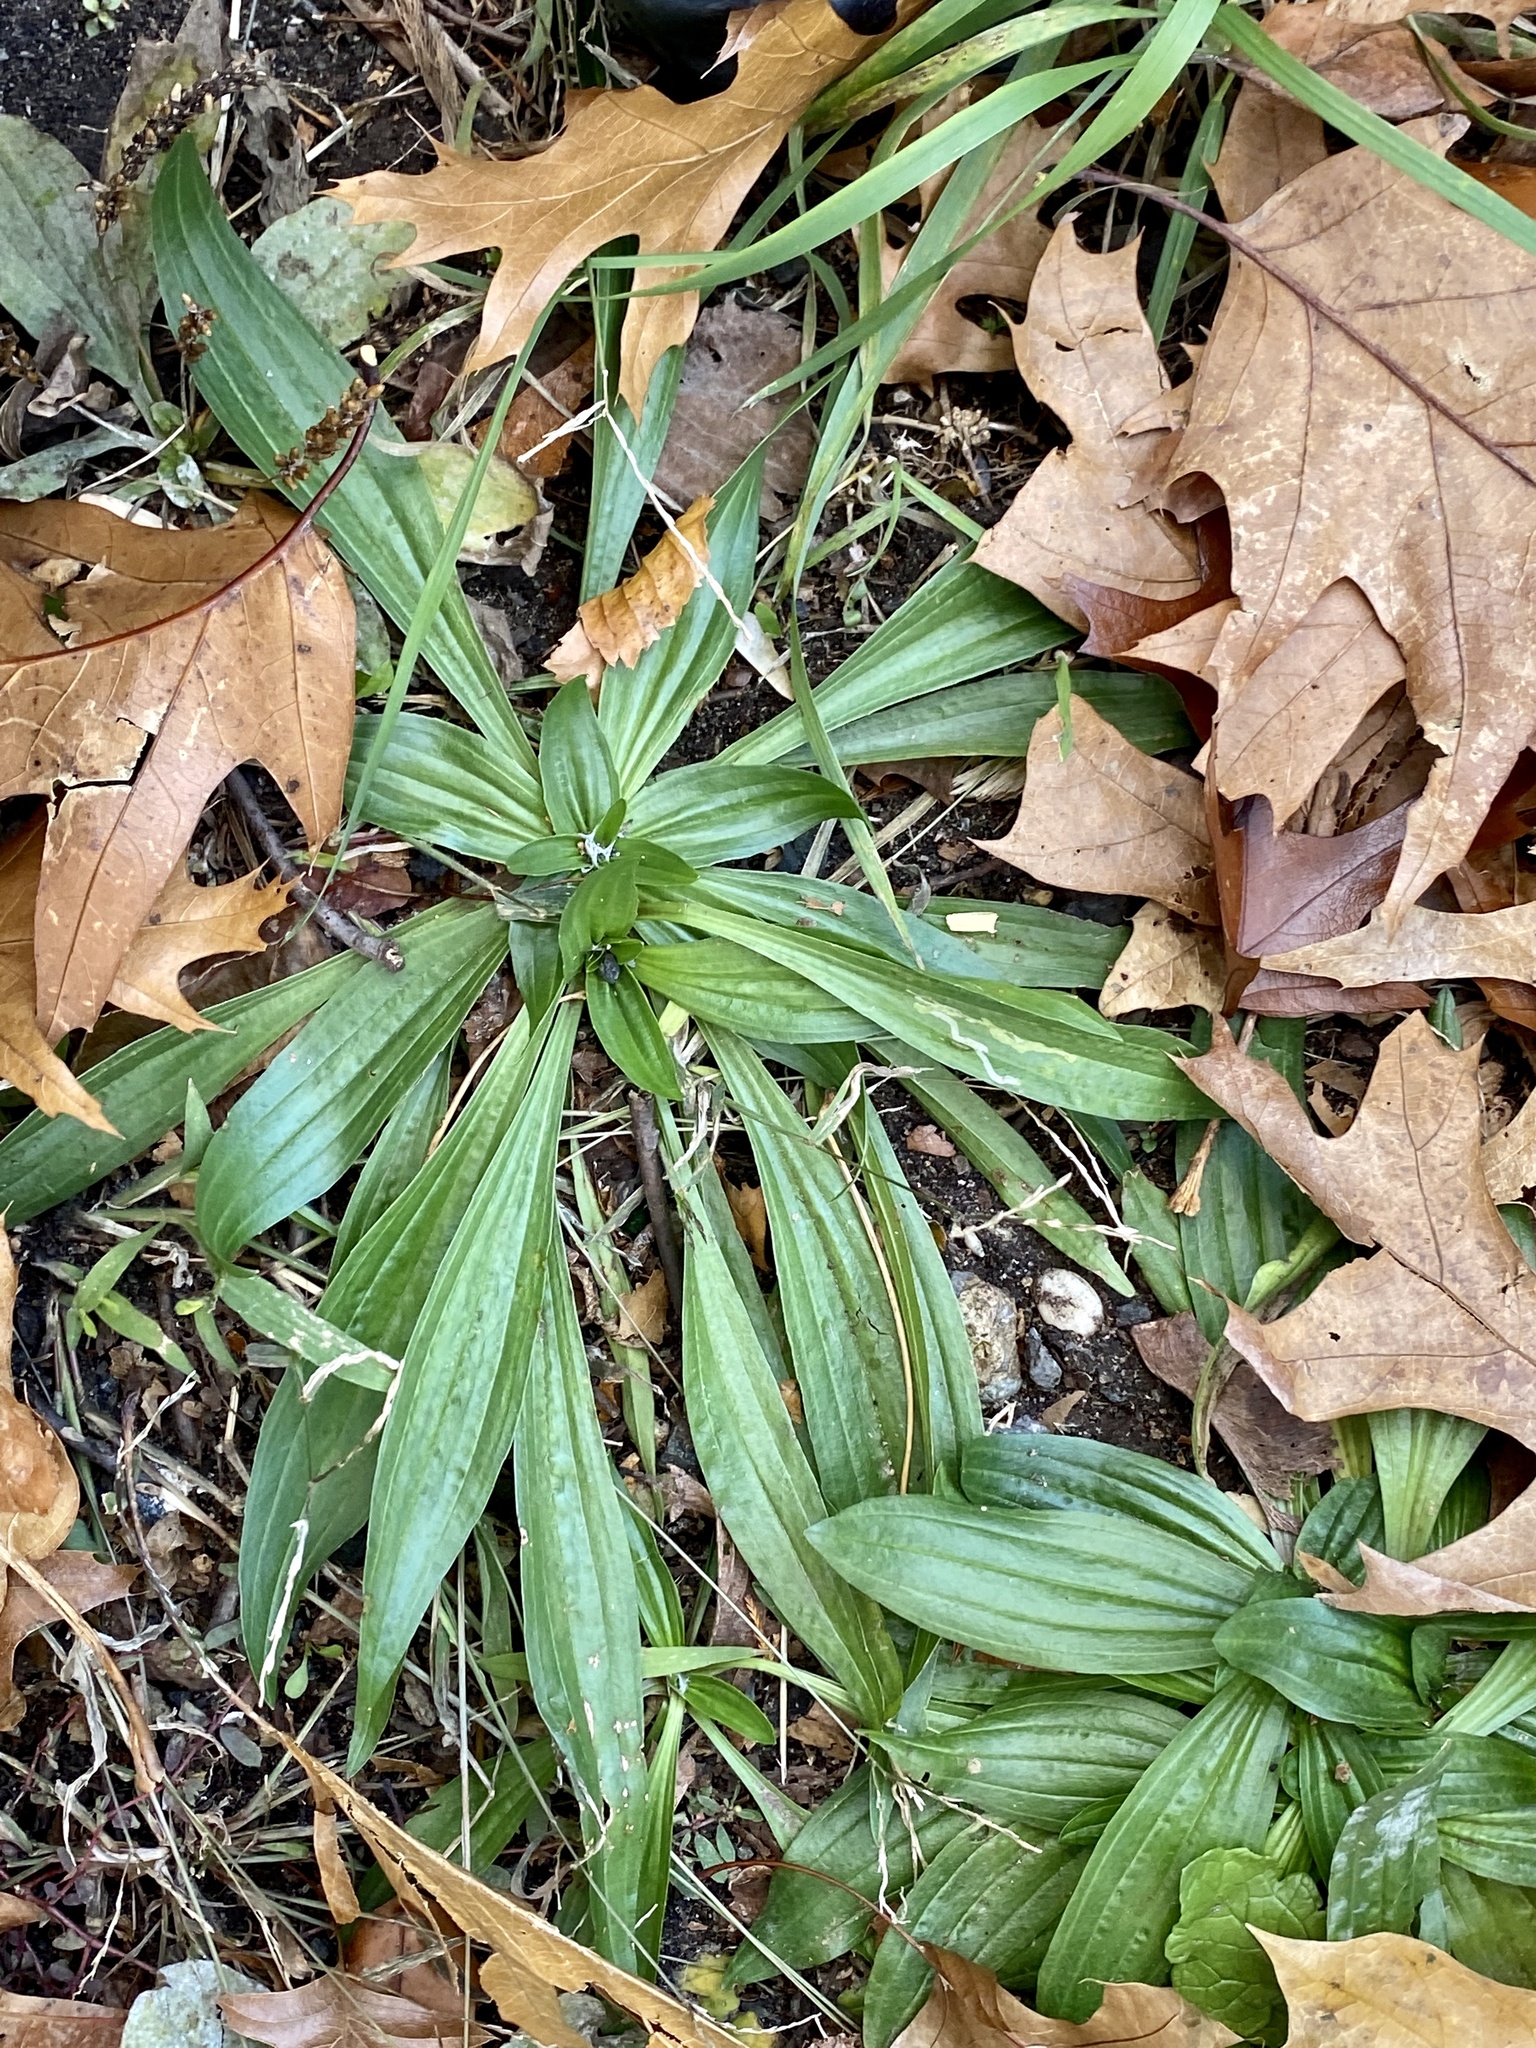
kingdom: Plantae
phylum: Tracheophyta
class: Magnoliopsida
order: Lamiales
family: Plantaginaceae
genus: Plantago
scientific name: Plantago lanceolata
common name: Ribwort plantain
